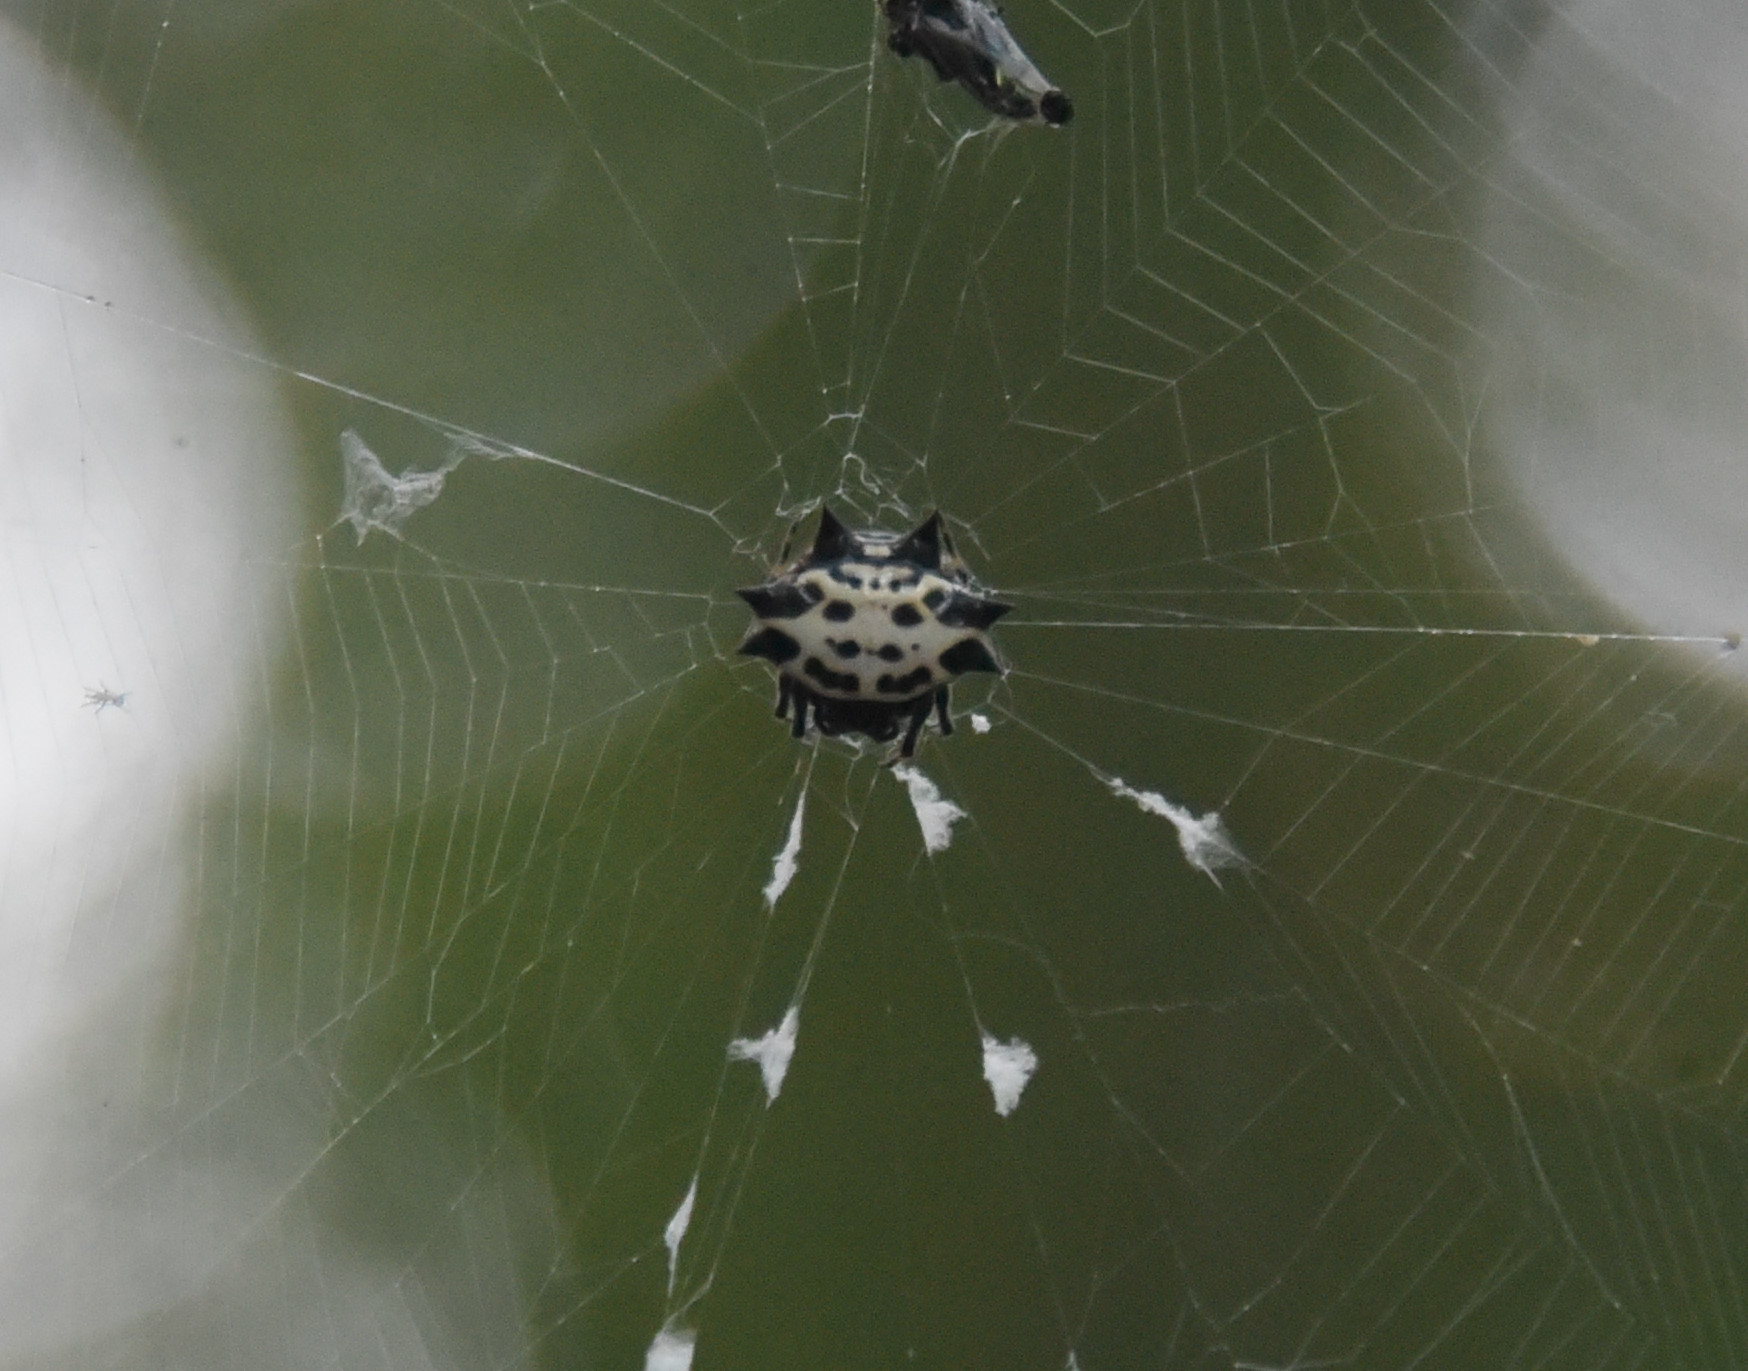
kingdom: Animalia
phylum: Arthropoda
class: Arachnida
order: Araneae
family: Araneidae
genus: Gasteracantha
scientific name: Gasteracantha cancriformis
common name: Orb weavers
